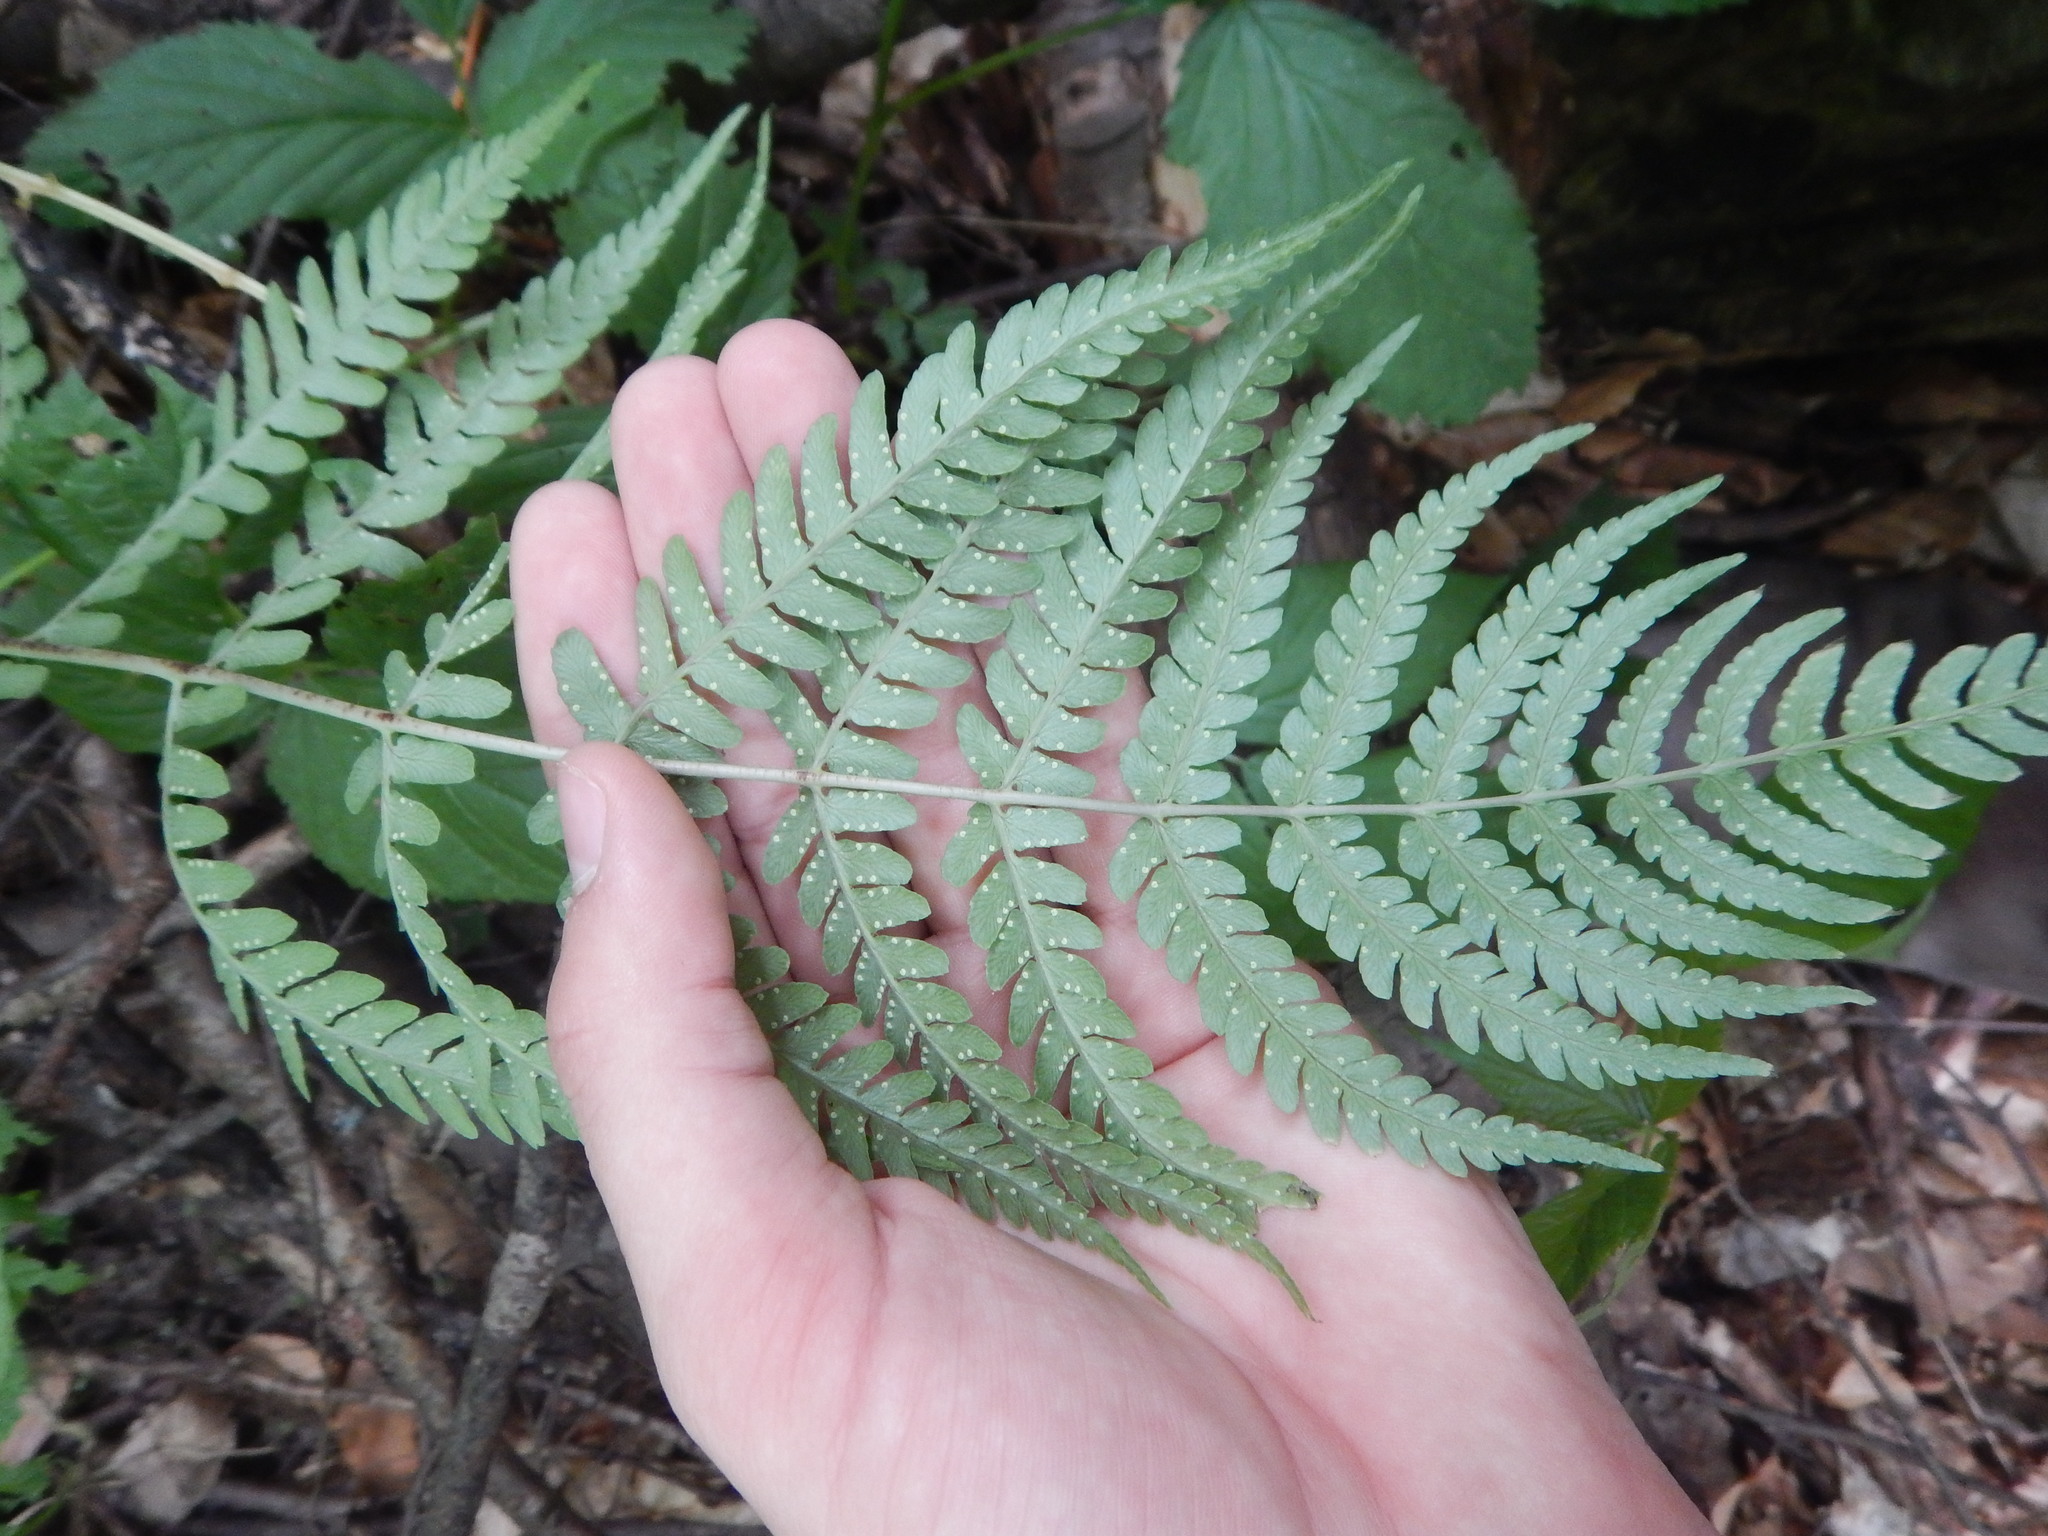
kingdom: Plantae
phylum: Tracheophyta
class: Polypodiopsida
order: Polypodiales
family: Dryopteridaceae
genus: Dryopteris
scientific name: Dryopteris marginalis
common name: Marginal wood fern
